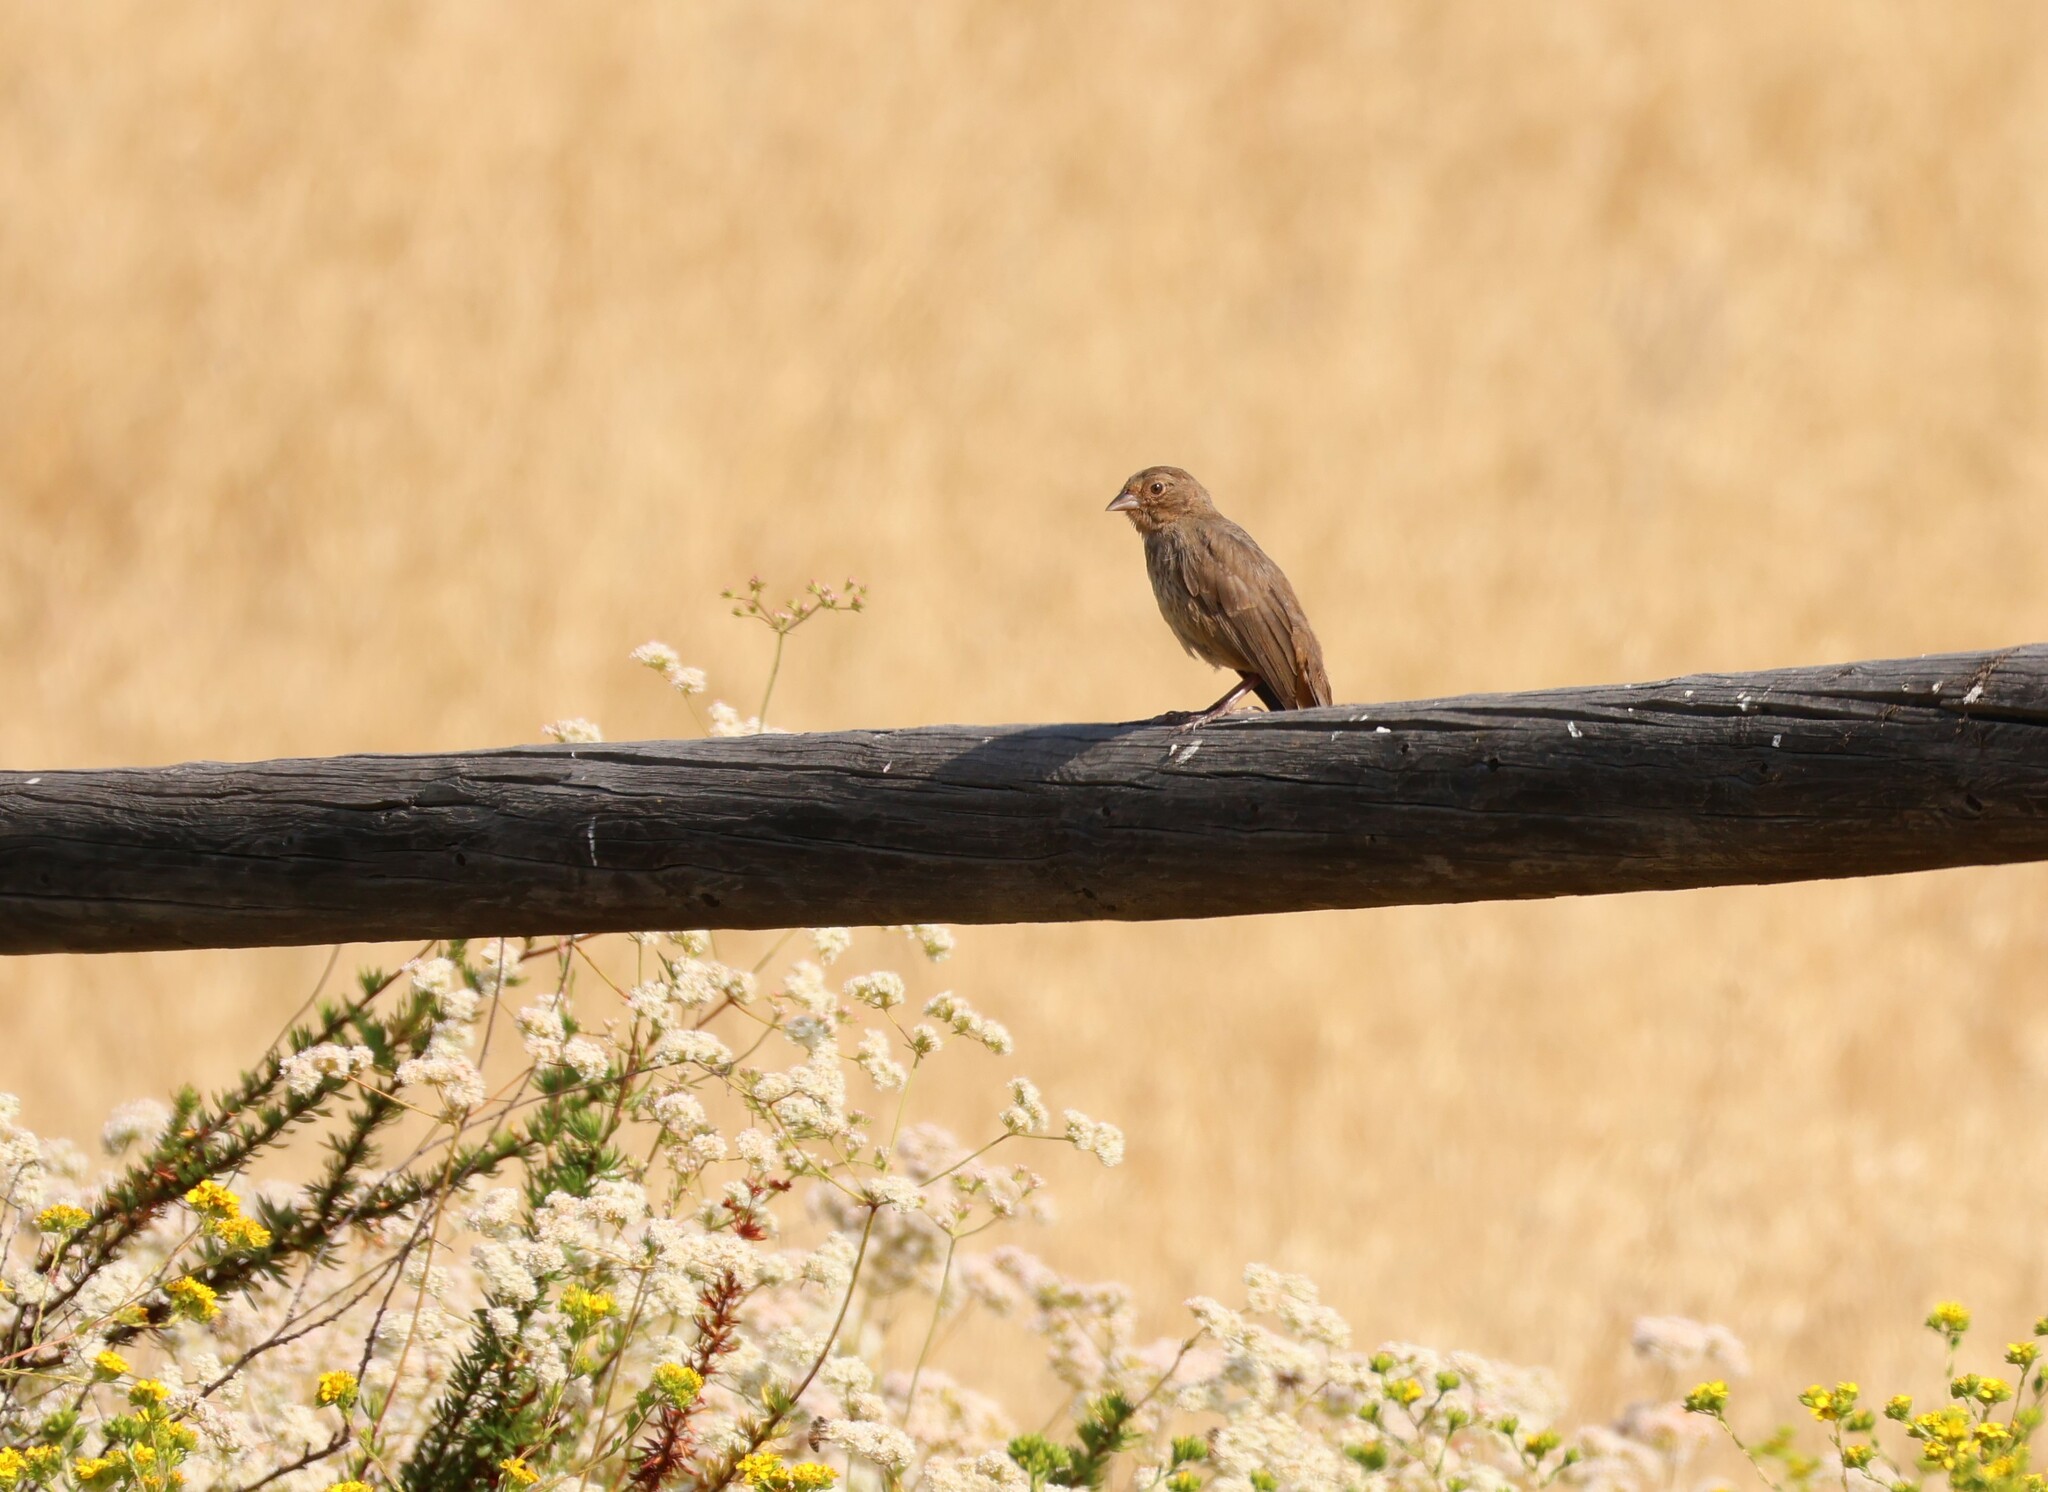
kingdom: Animalia
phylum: Chordata
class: Aves
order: Passeriformes
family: Passerellidae
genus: Melozone
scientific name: Melozone crissalis
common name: California towhee
